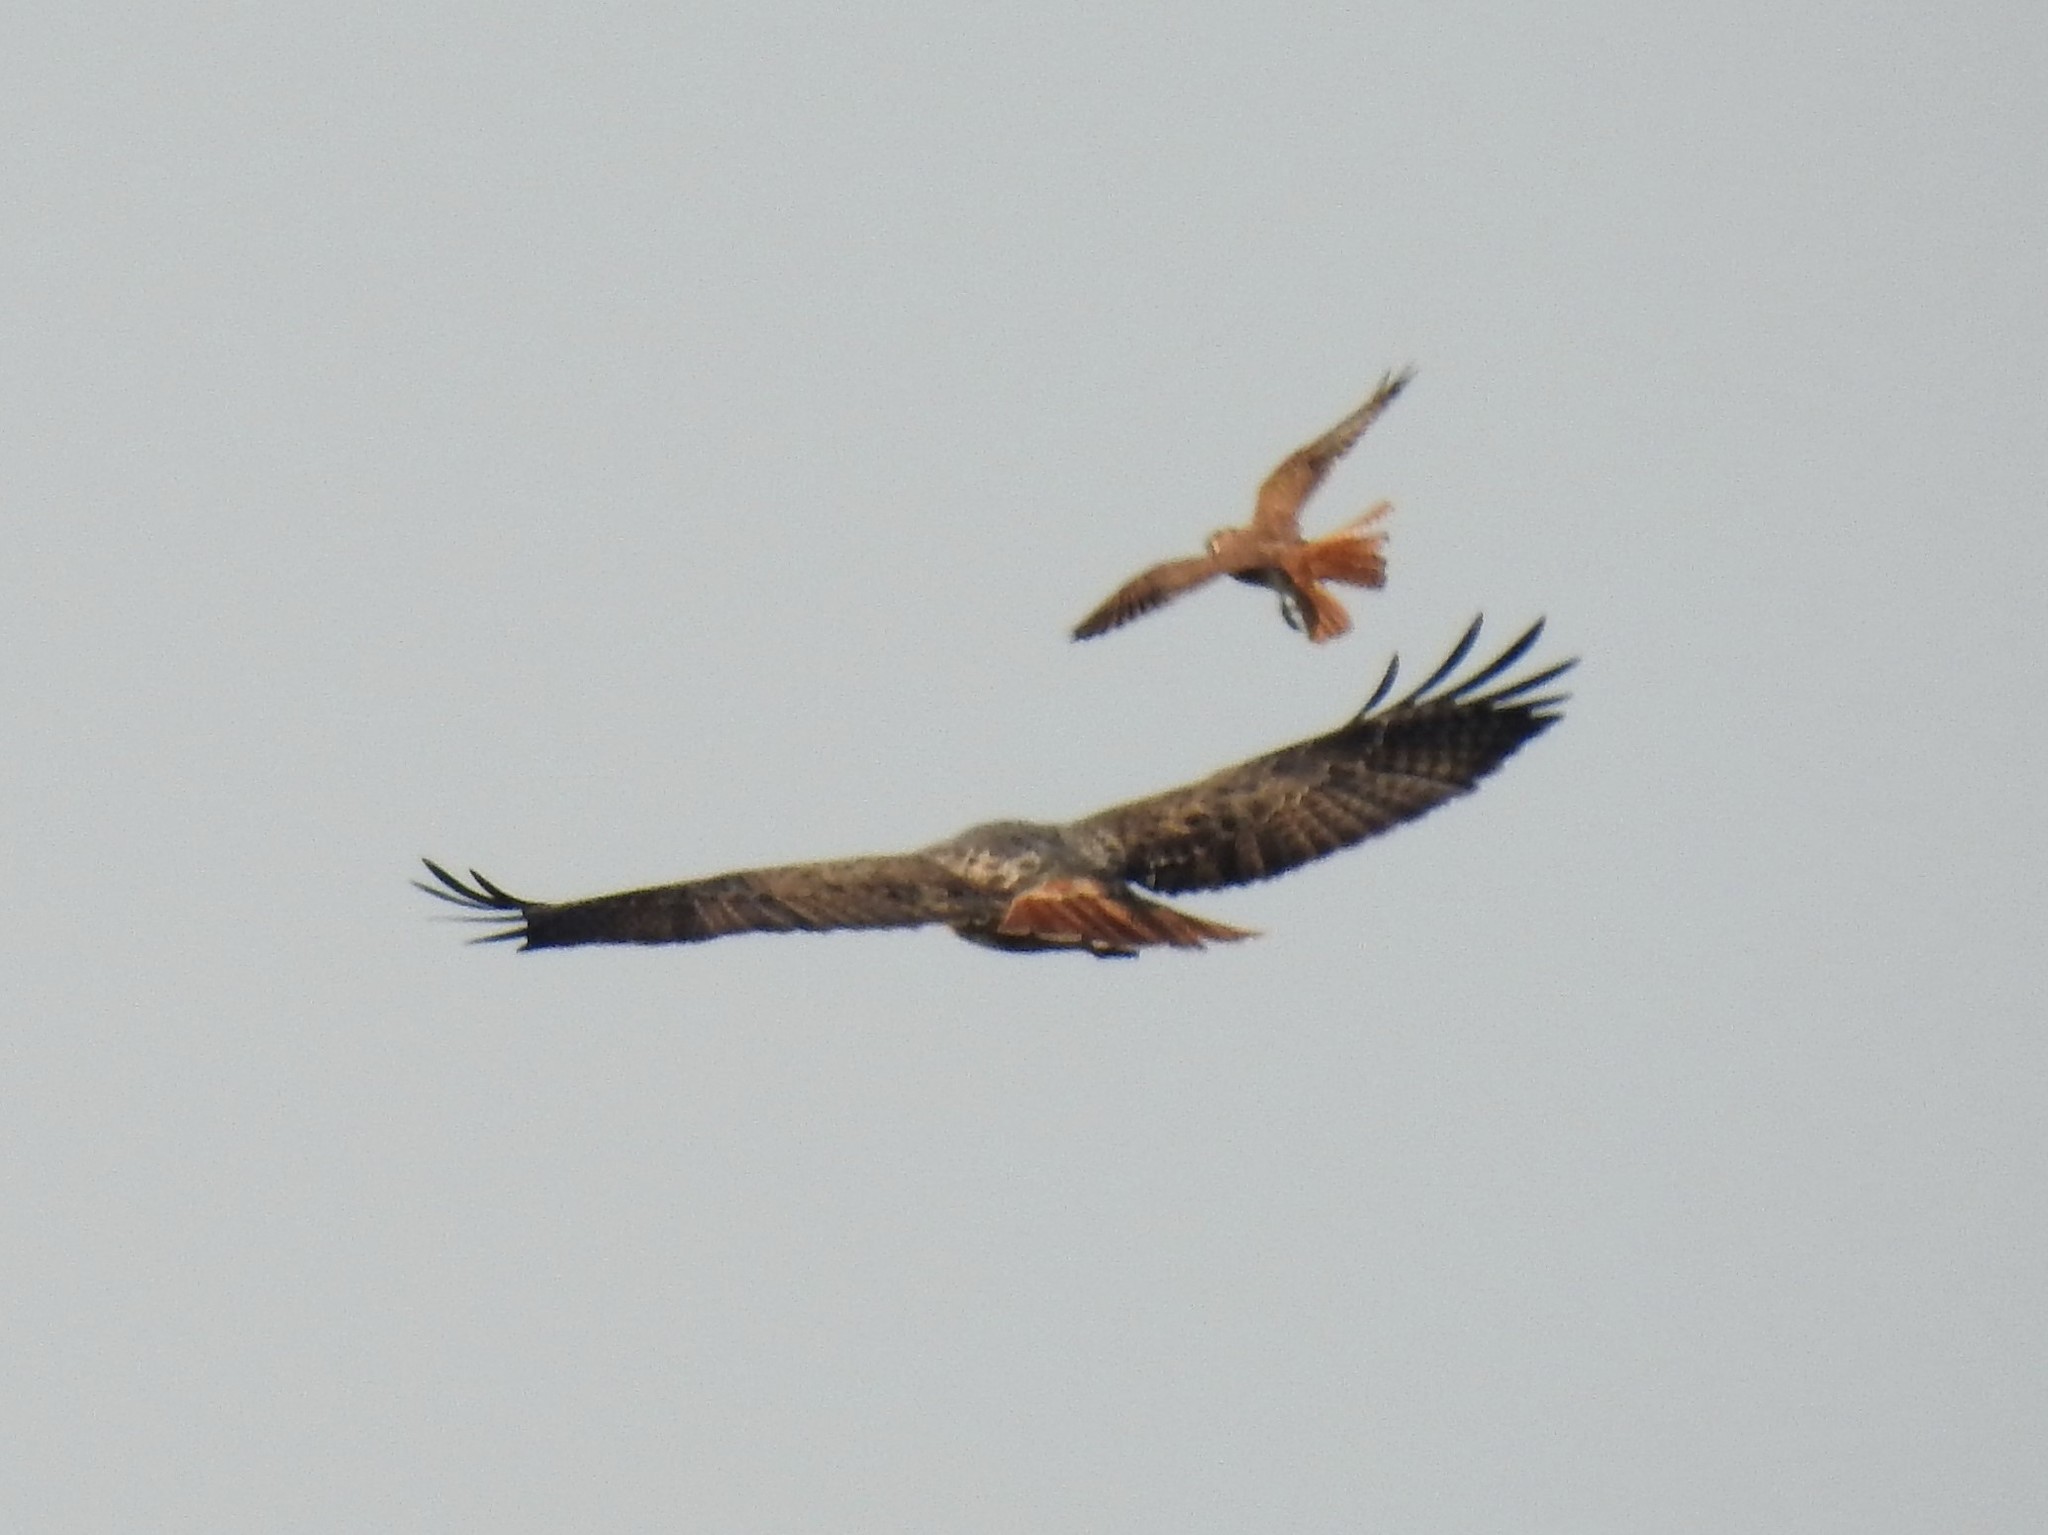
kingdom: Animalia
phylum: Chordata
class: Aves
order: Accipitriformes
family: Accipitridae
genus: Buteo
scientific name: Buteo jamaicensis
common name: Red-tailed hawk
